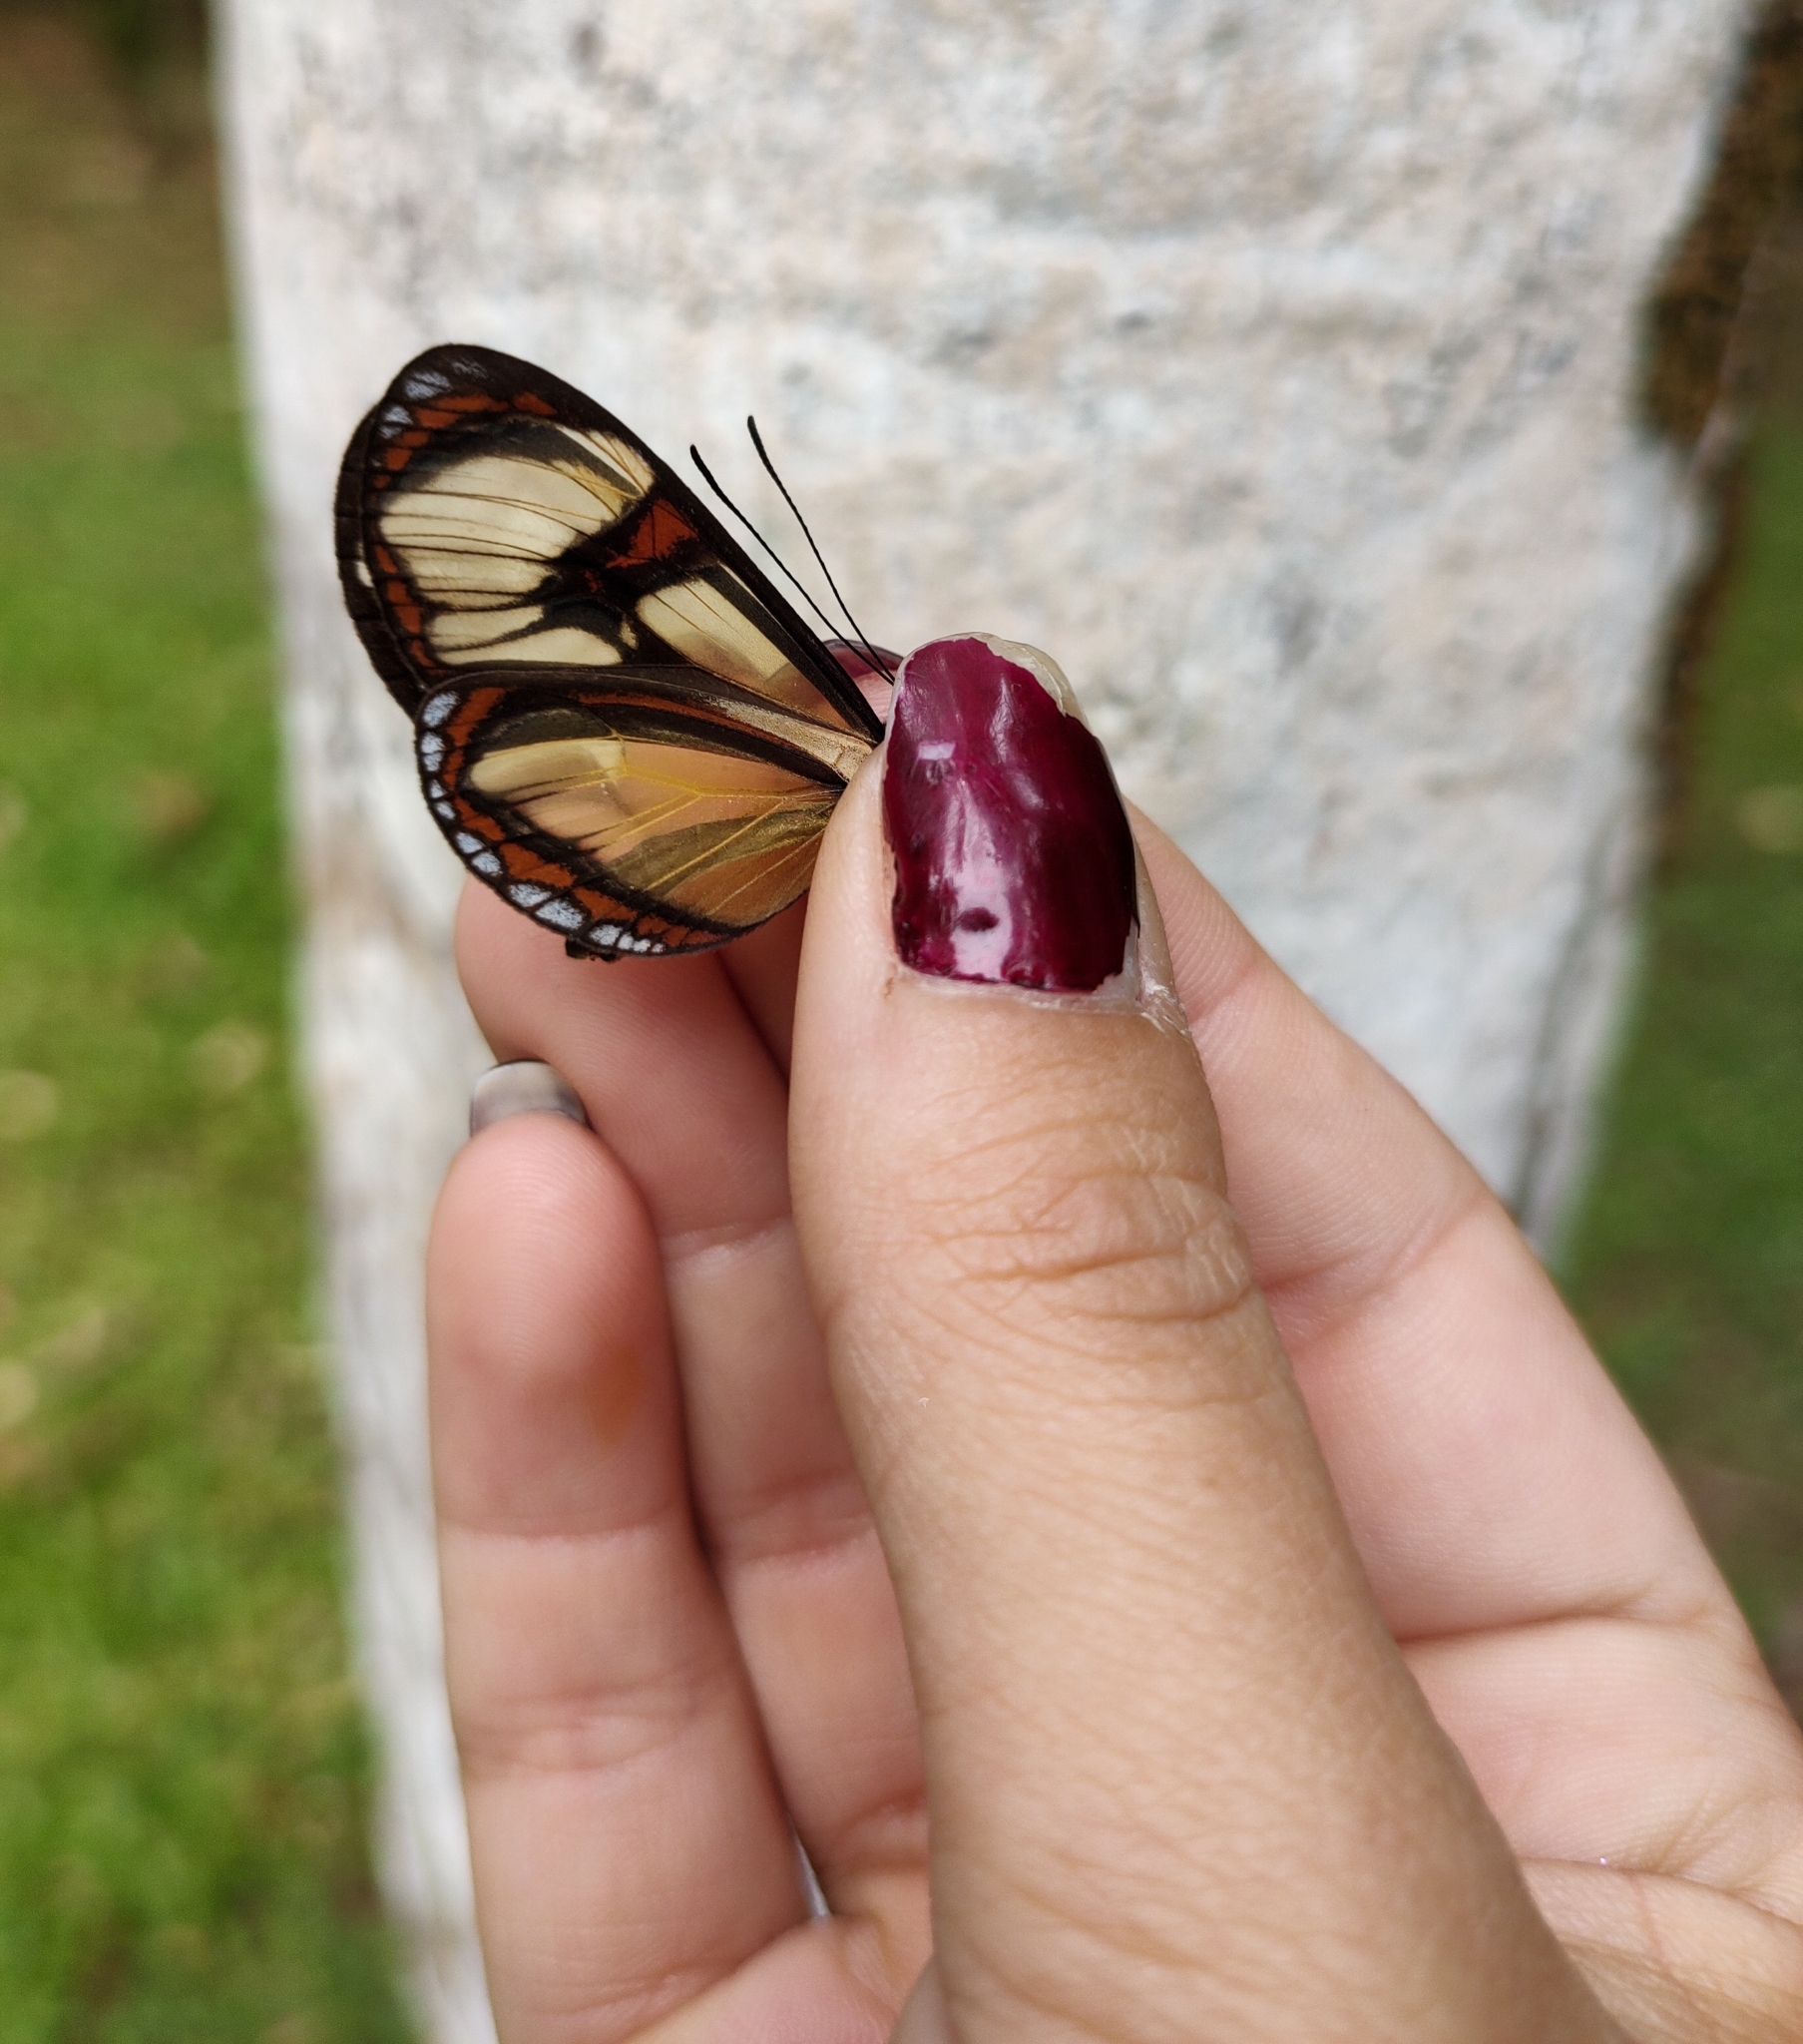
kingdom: Animalia
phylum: Arthropoda
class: Insecta
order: Lepidoptera
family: Nymphalidae
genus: Epityches
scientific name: Epityches eupompe
